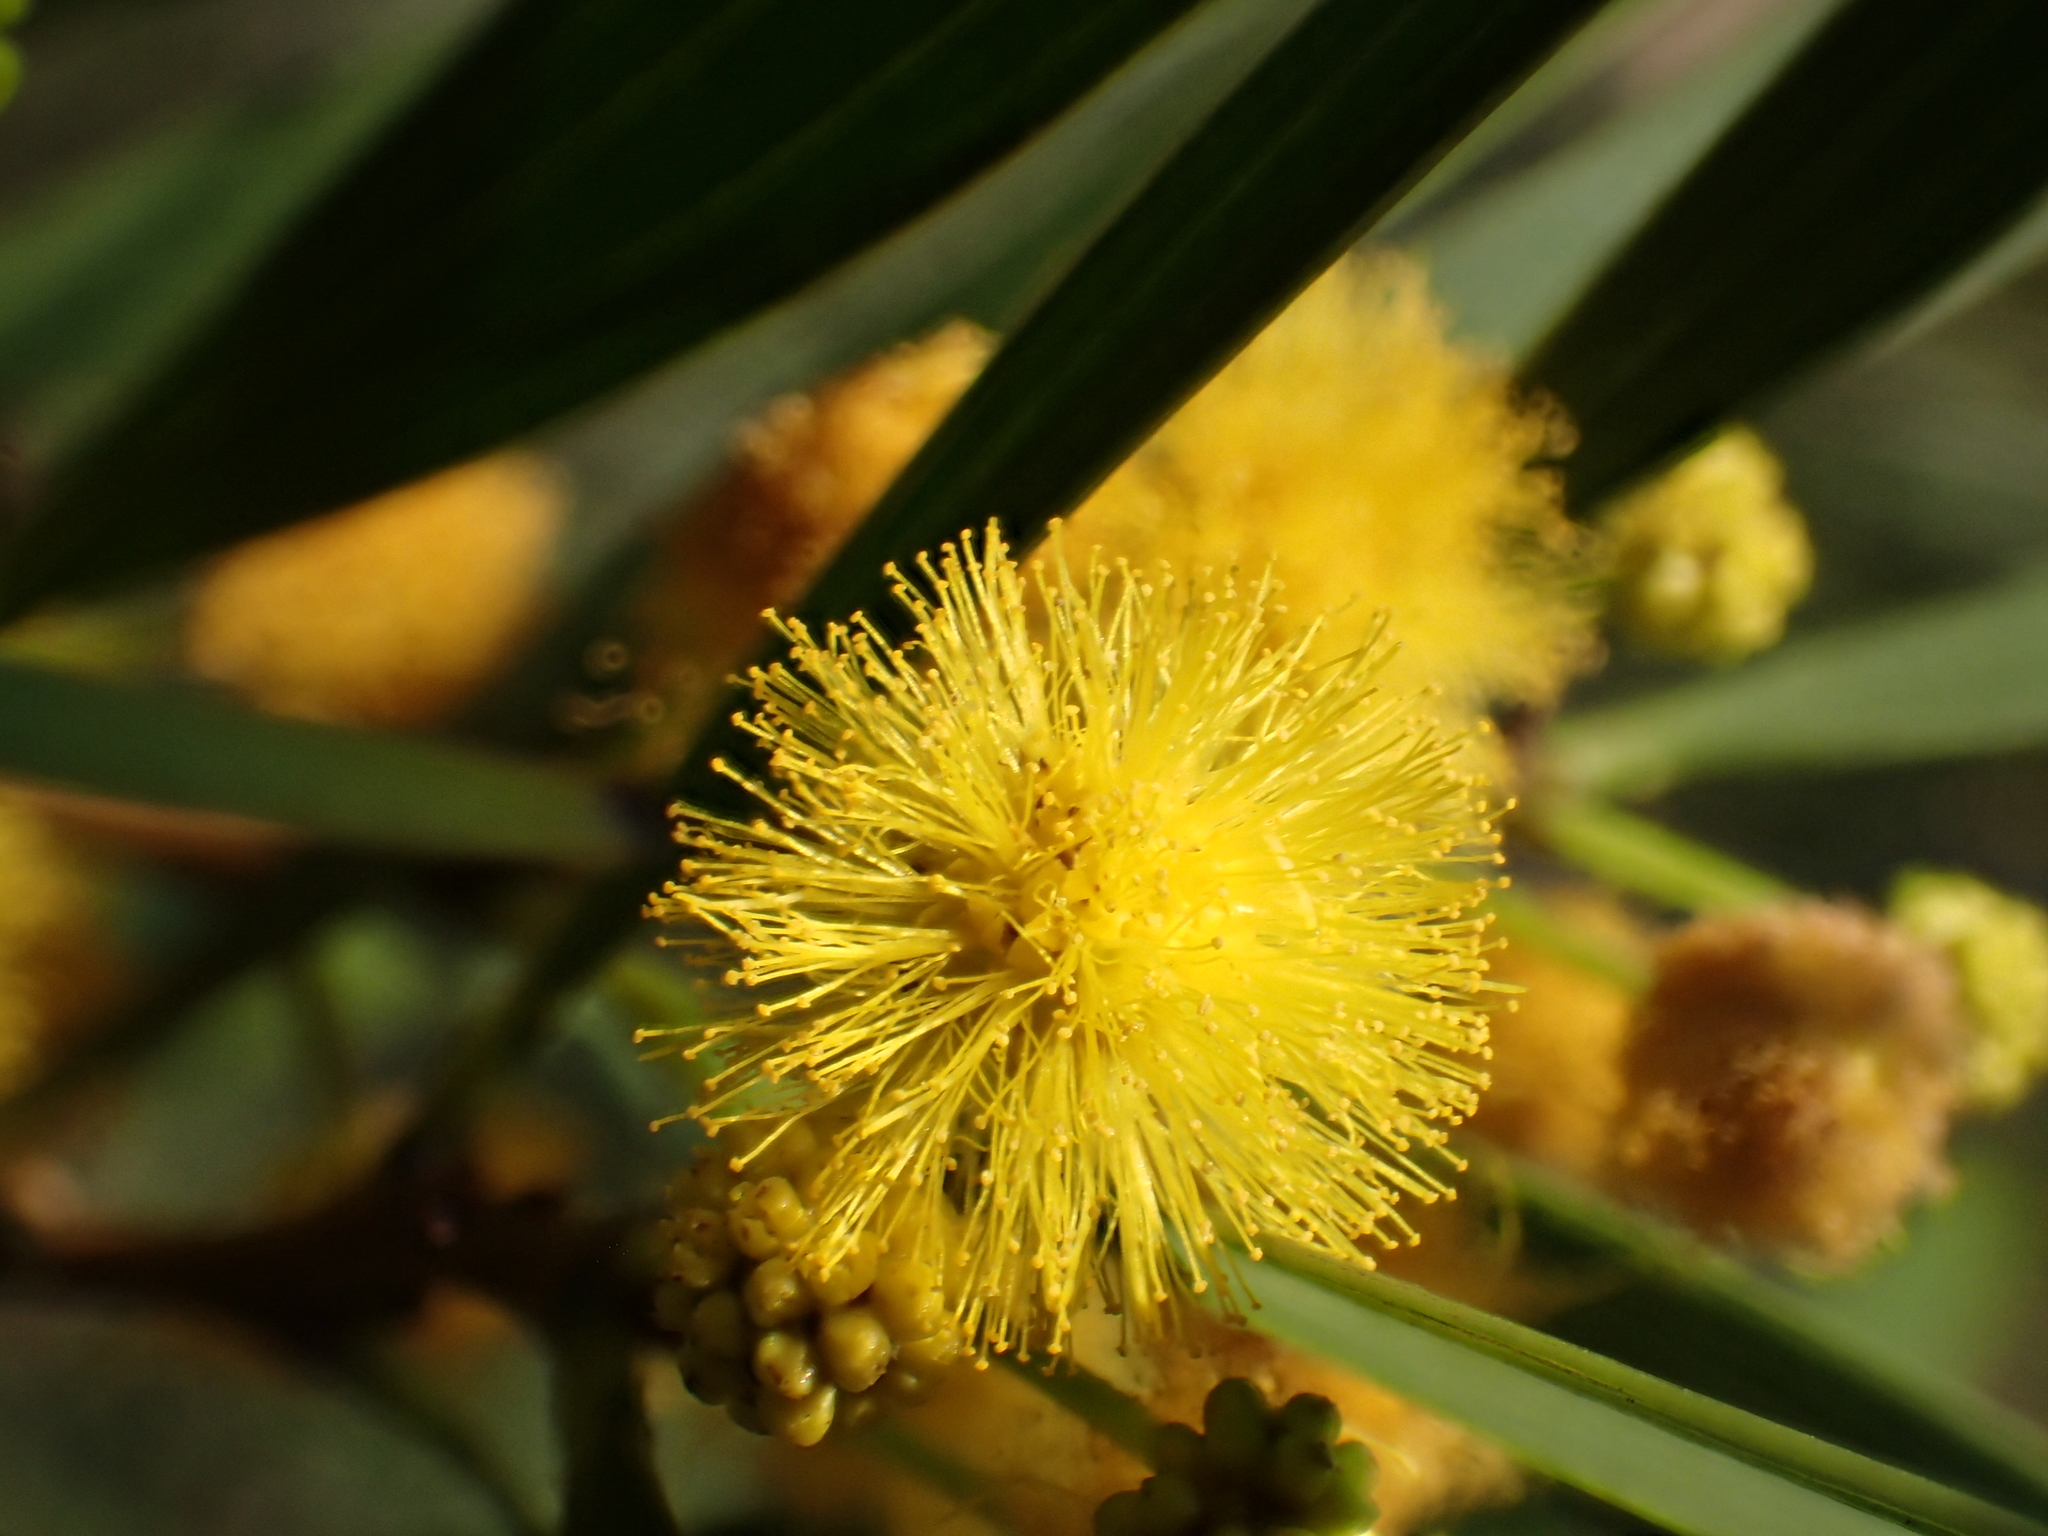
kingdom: Plantae
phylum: Tracheophyta
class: Magnoliopsida
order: Fabales
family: Fabaceae
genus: Acacia
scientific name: Acacia confusa
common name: Formosan koa
